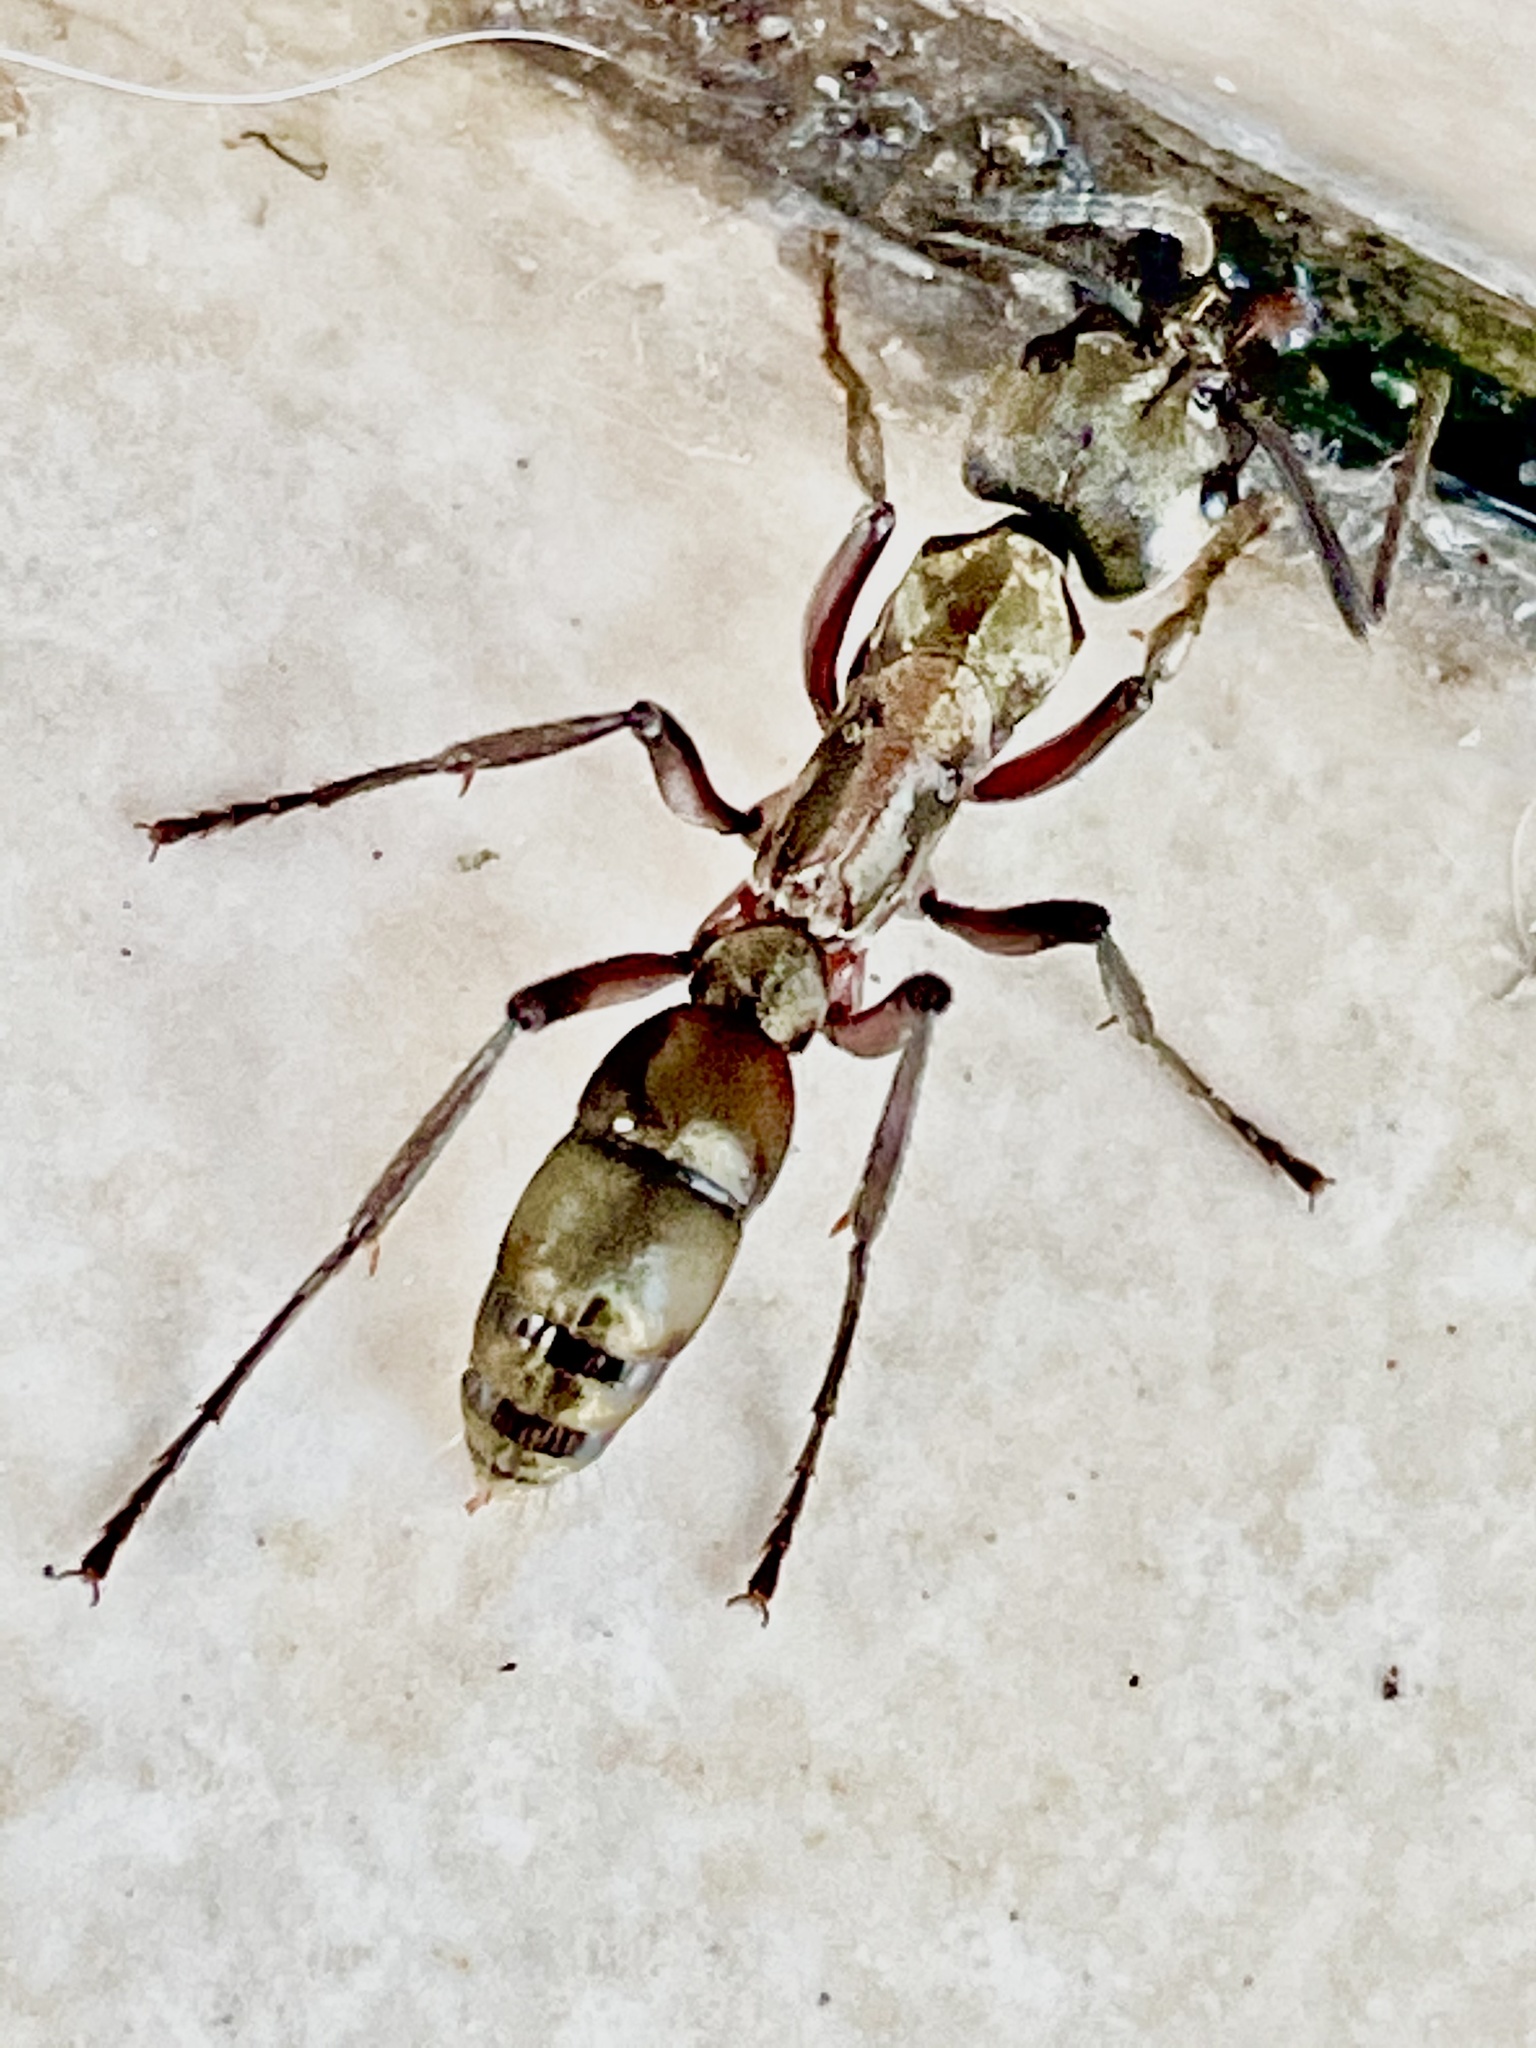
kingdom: Animalia
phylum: Arthropoda
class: Insecta
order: Hymenoptera
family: Formicidae
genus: Pachycondyla
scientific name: Pachycondyla villosa
